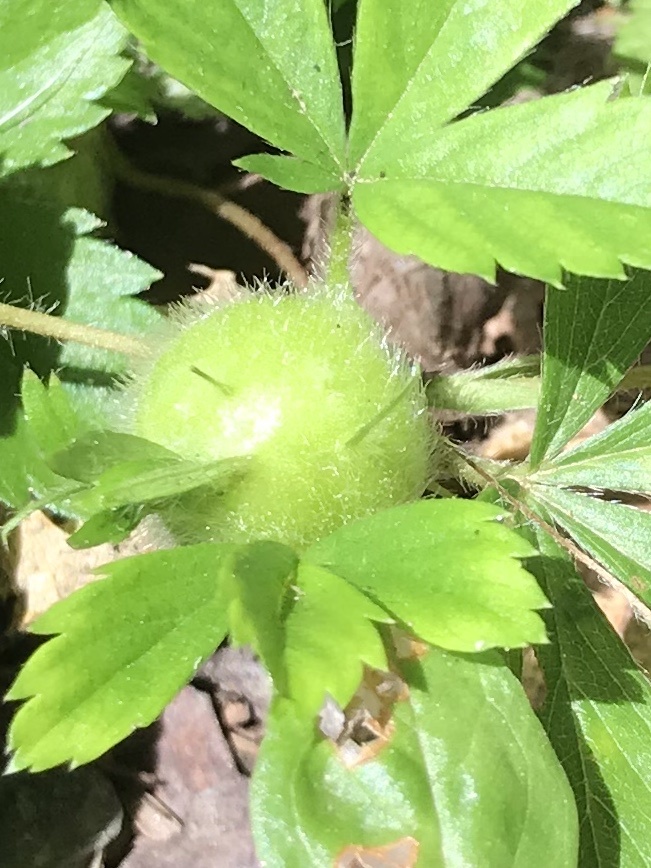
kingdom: Animalia
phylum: Arthropoda
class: Insecta
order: Hymenoptera
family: Cynipidae
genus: Diastrophus
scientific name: Diastrophus potentillae
